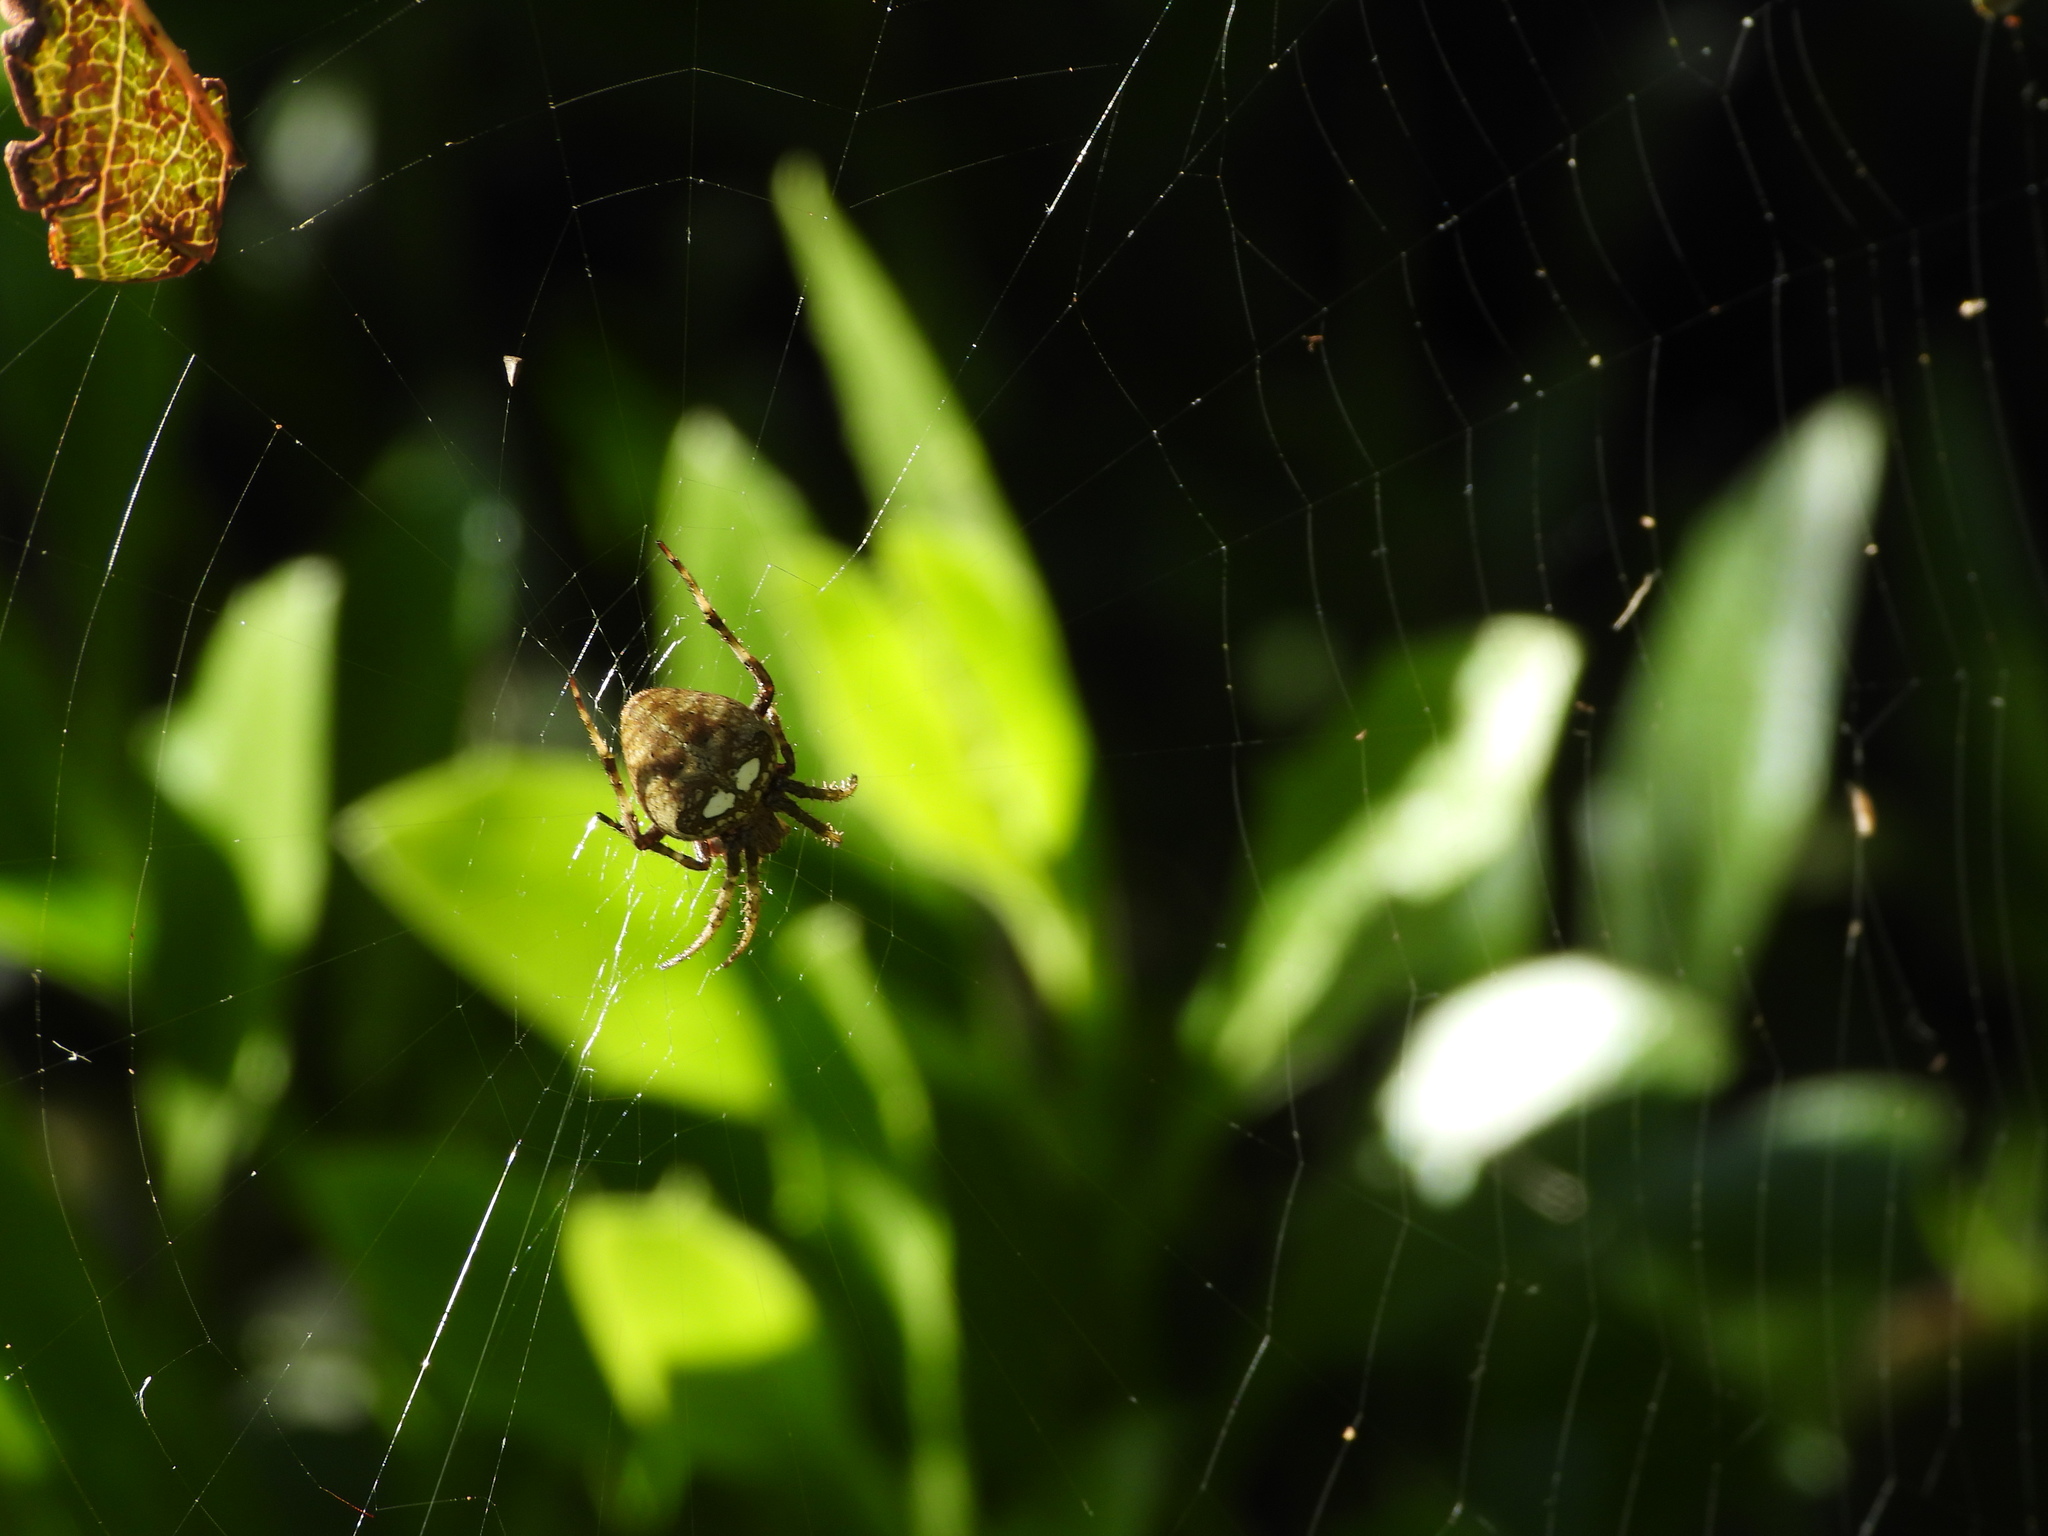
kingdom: Animalia
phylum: Arthropoda
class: Arachnida
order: Araneae
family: Araneidae
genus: Zealaranea
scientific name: Zealaranea crassa
